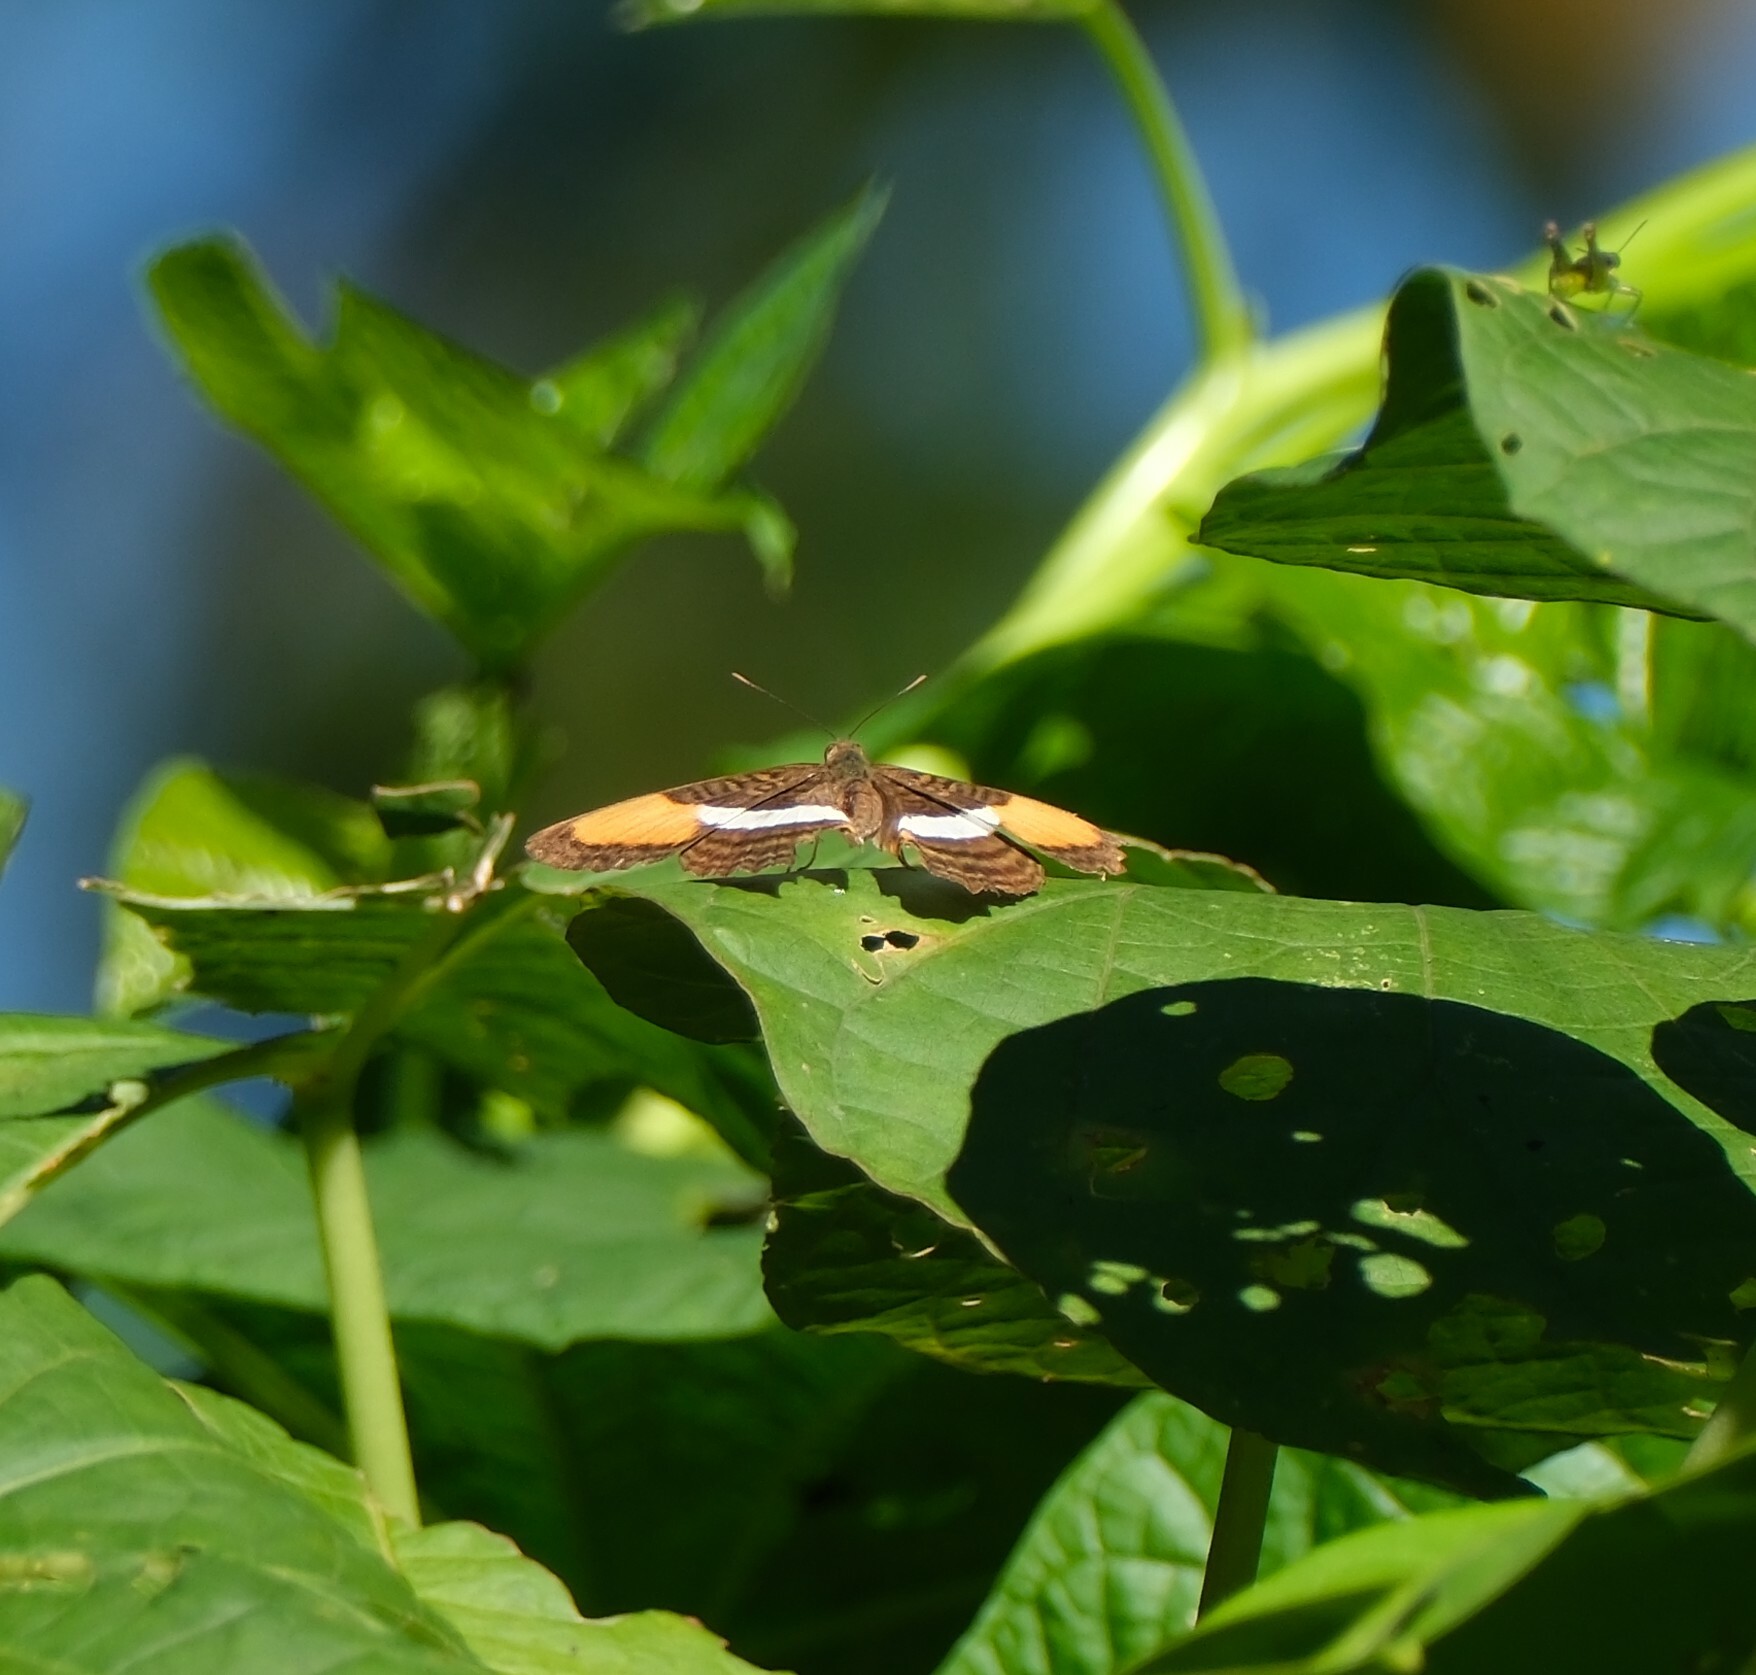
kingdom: Animalia
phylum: Arthropoda
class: Insecta
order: Lepidoptera
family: Nymphalidae
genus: Limenitis
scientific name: Limenitis cytherea
